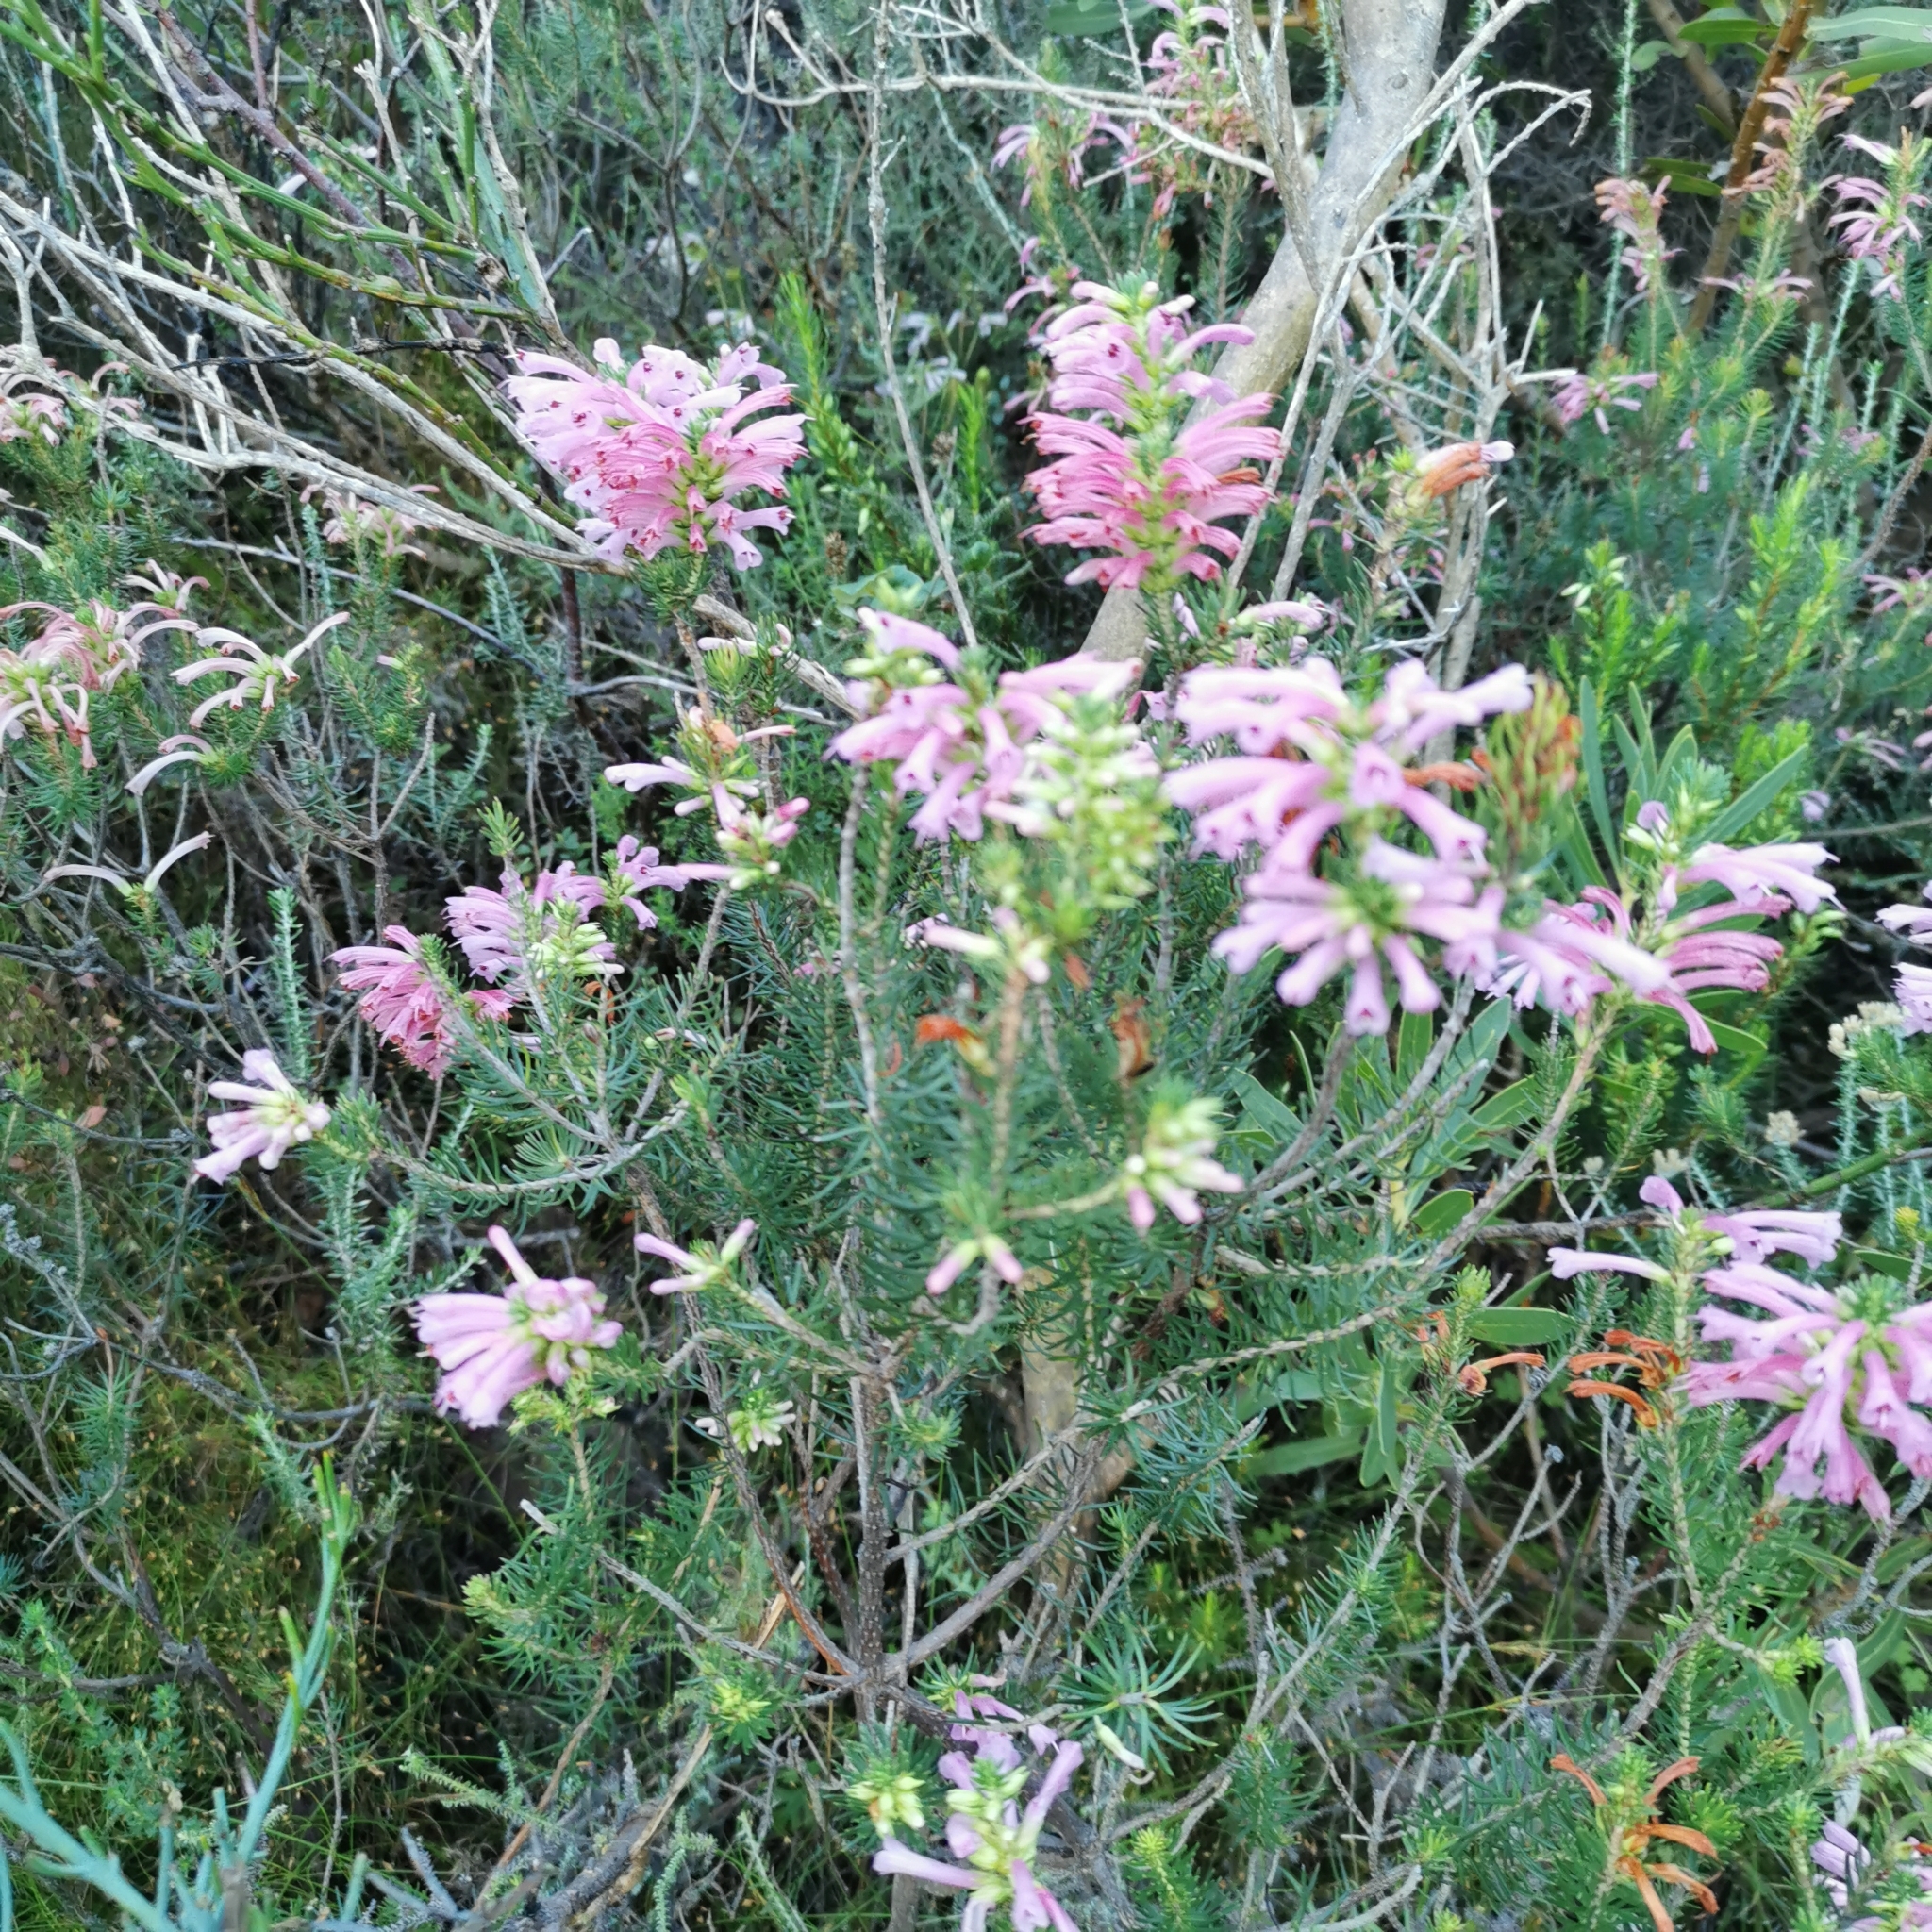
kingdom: Plantae
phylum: Tracheophyta
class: Magnoliopsida
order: Ericales
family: Ericaceae
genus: Erica
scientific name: Erica abietina
